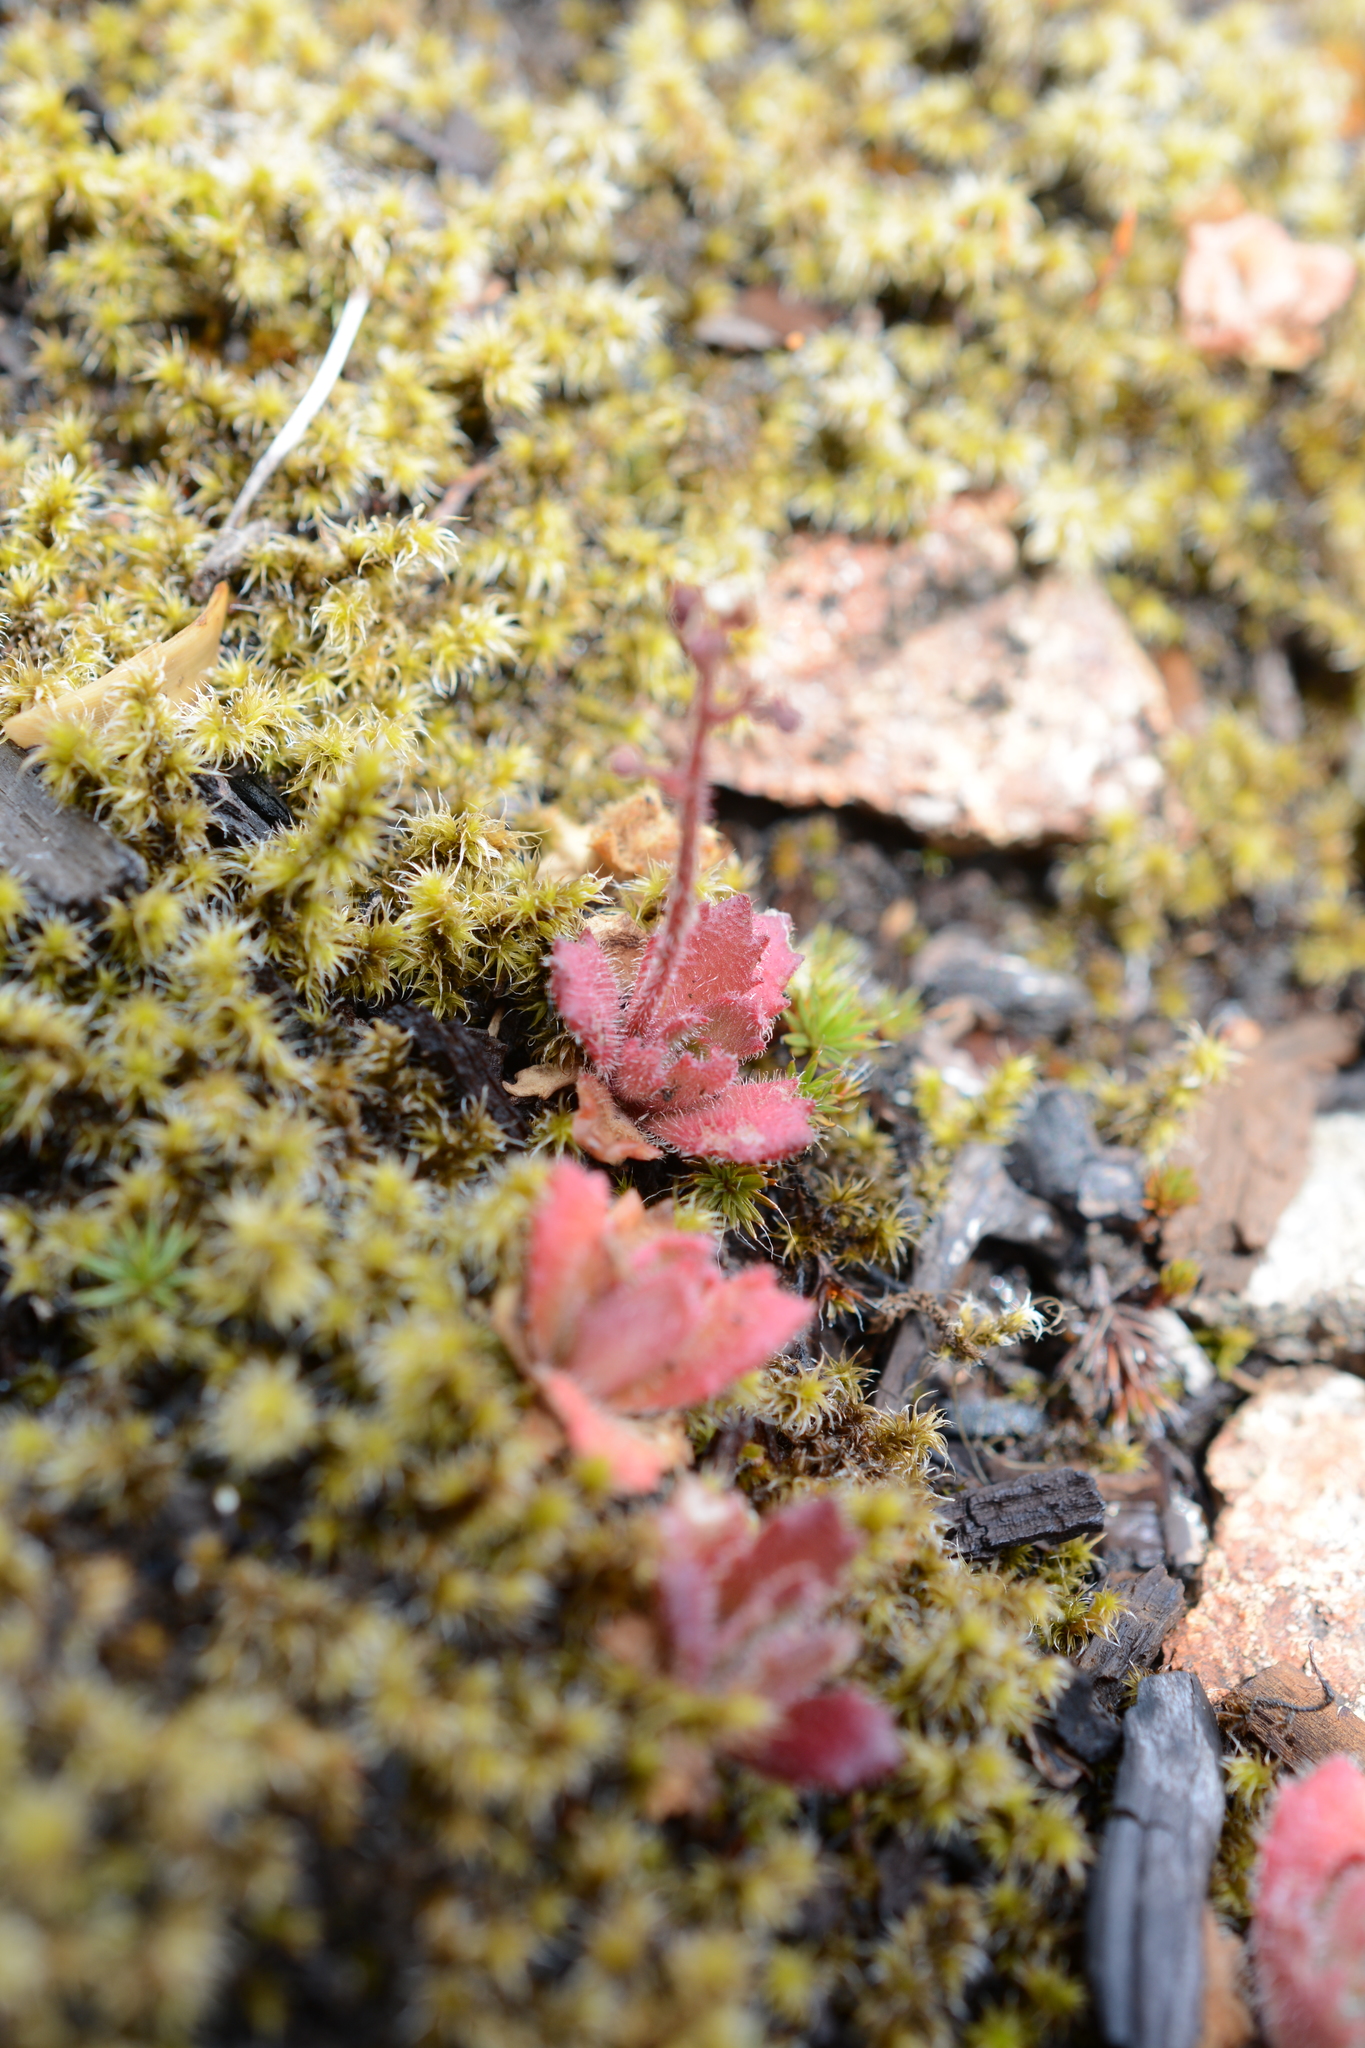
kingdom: Plantae
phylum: Tracheophyta
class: Magnoliopsida
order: Saxifragales
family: Saxifragaceae
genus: Micranthes
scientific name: Micranthes ferruginea
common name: Rusty saxifrage
